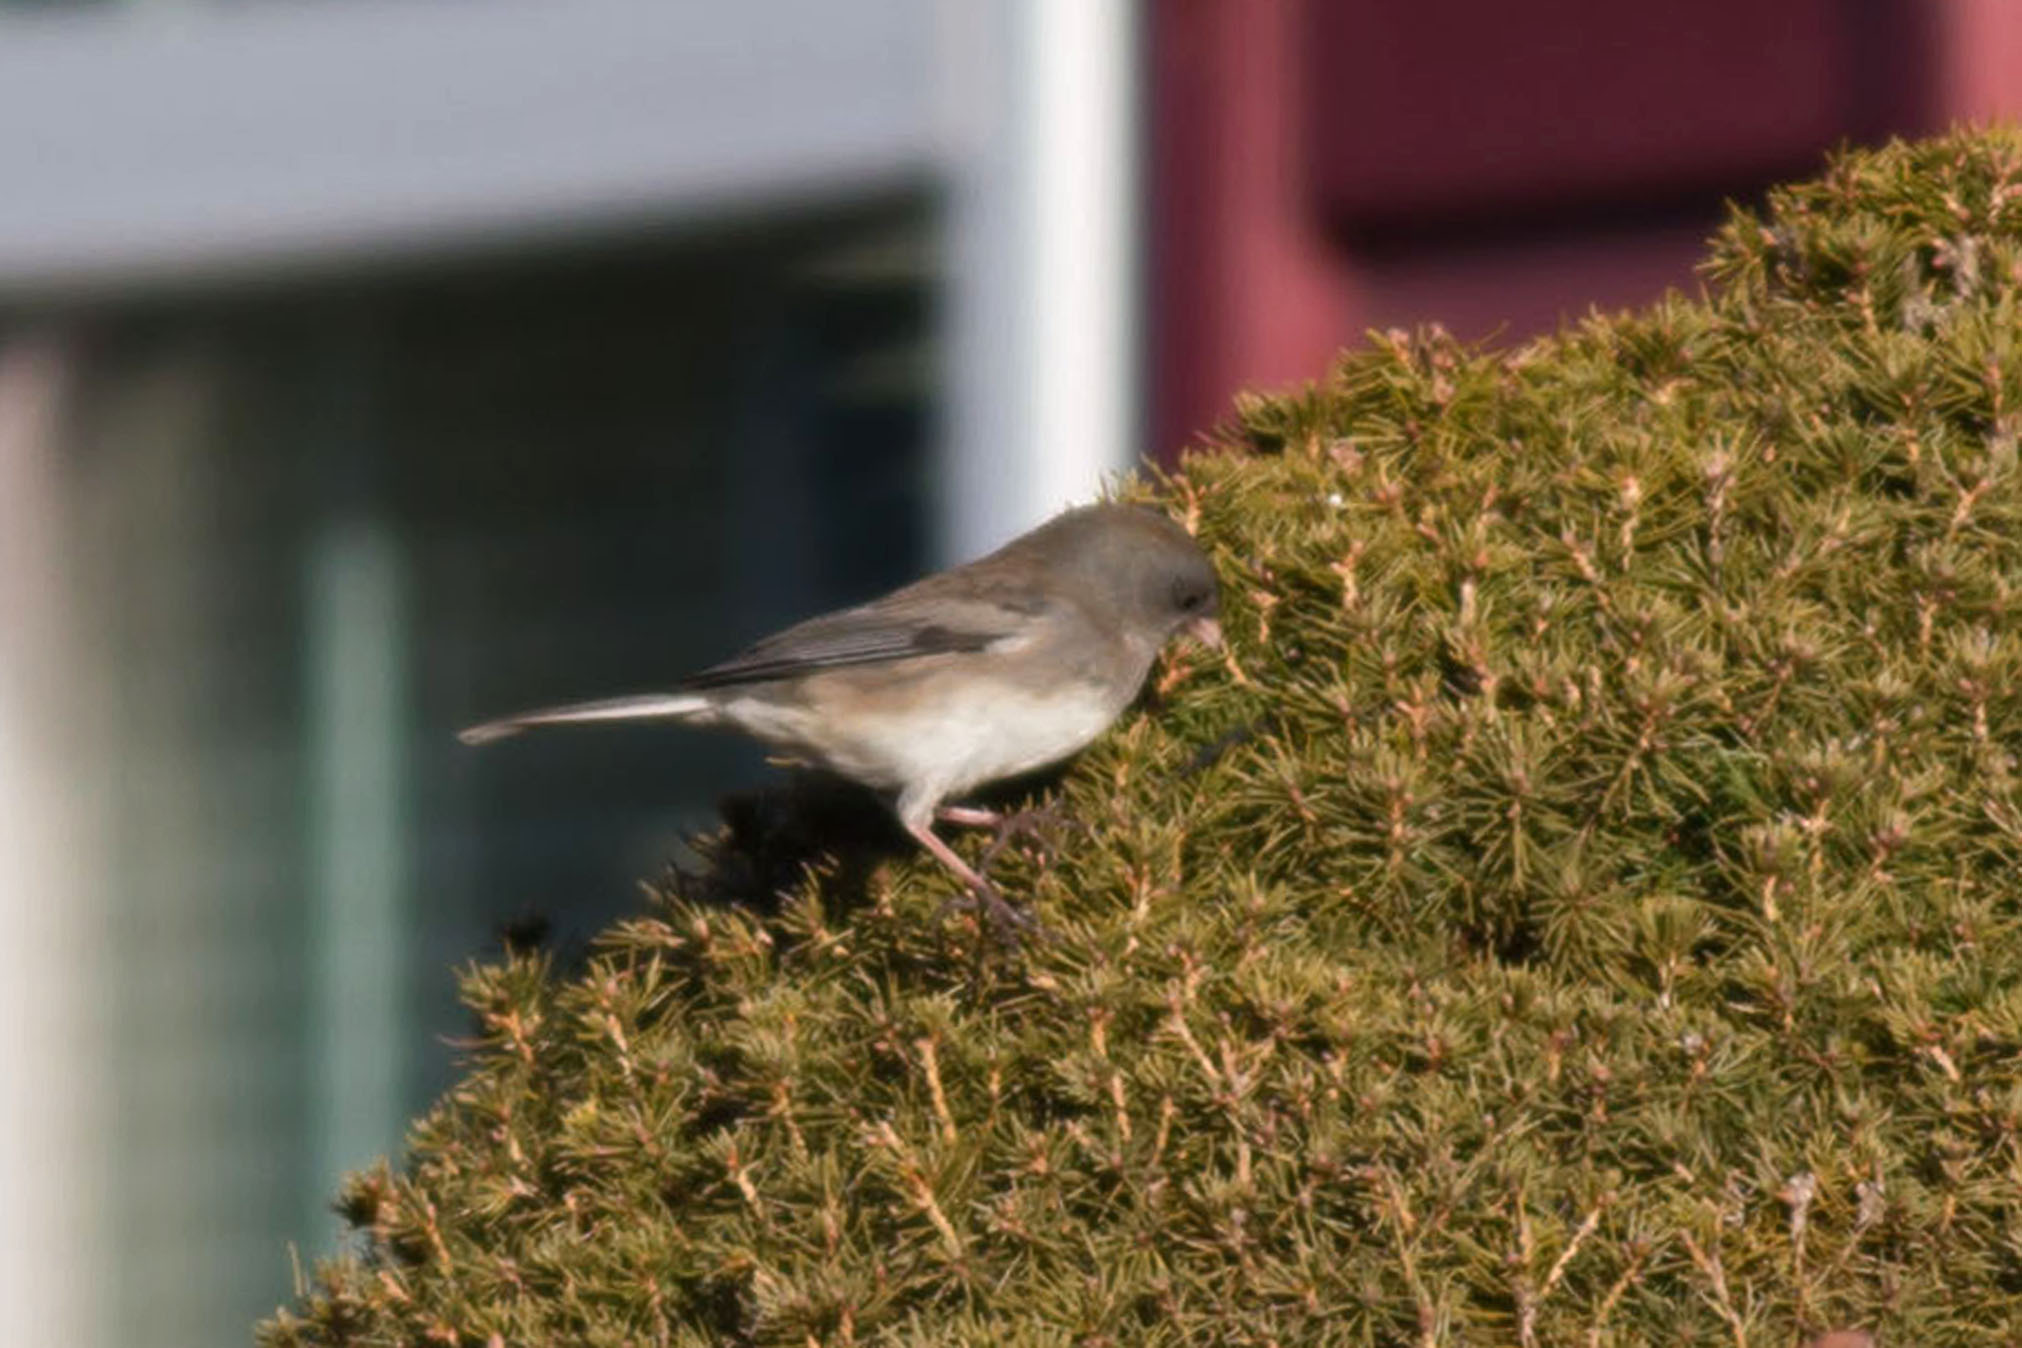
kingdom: Animalia
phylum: Chordata
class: Aves
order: Passeriformes
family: Passerellidae
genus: Junco
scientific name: Junco hyemalis
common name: Dark-eyed junco
